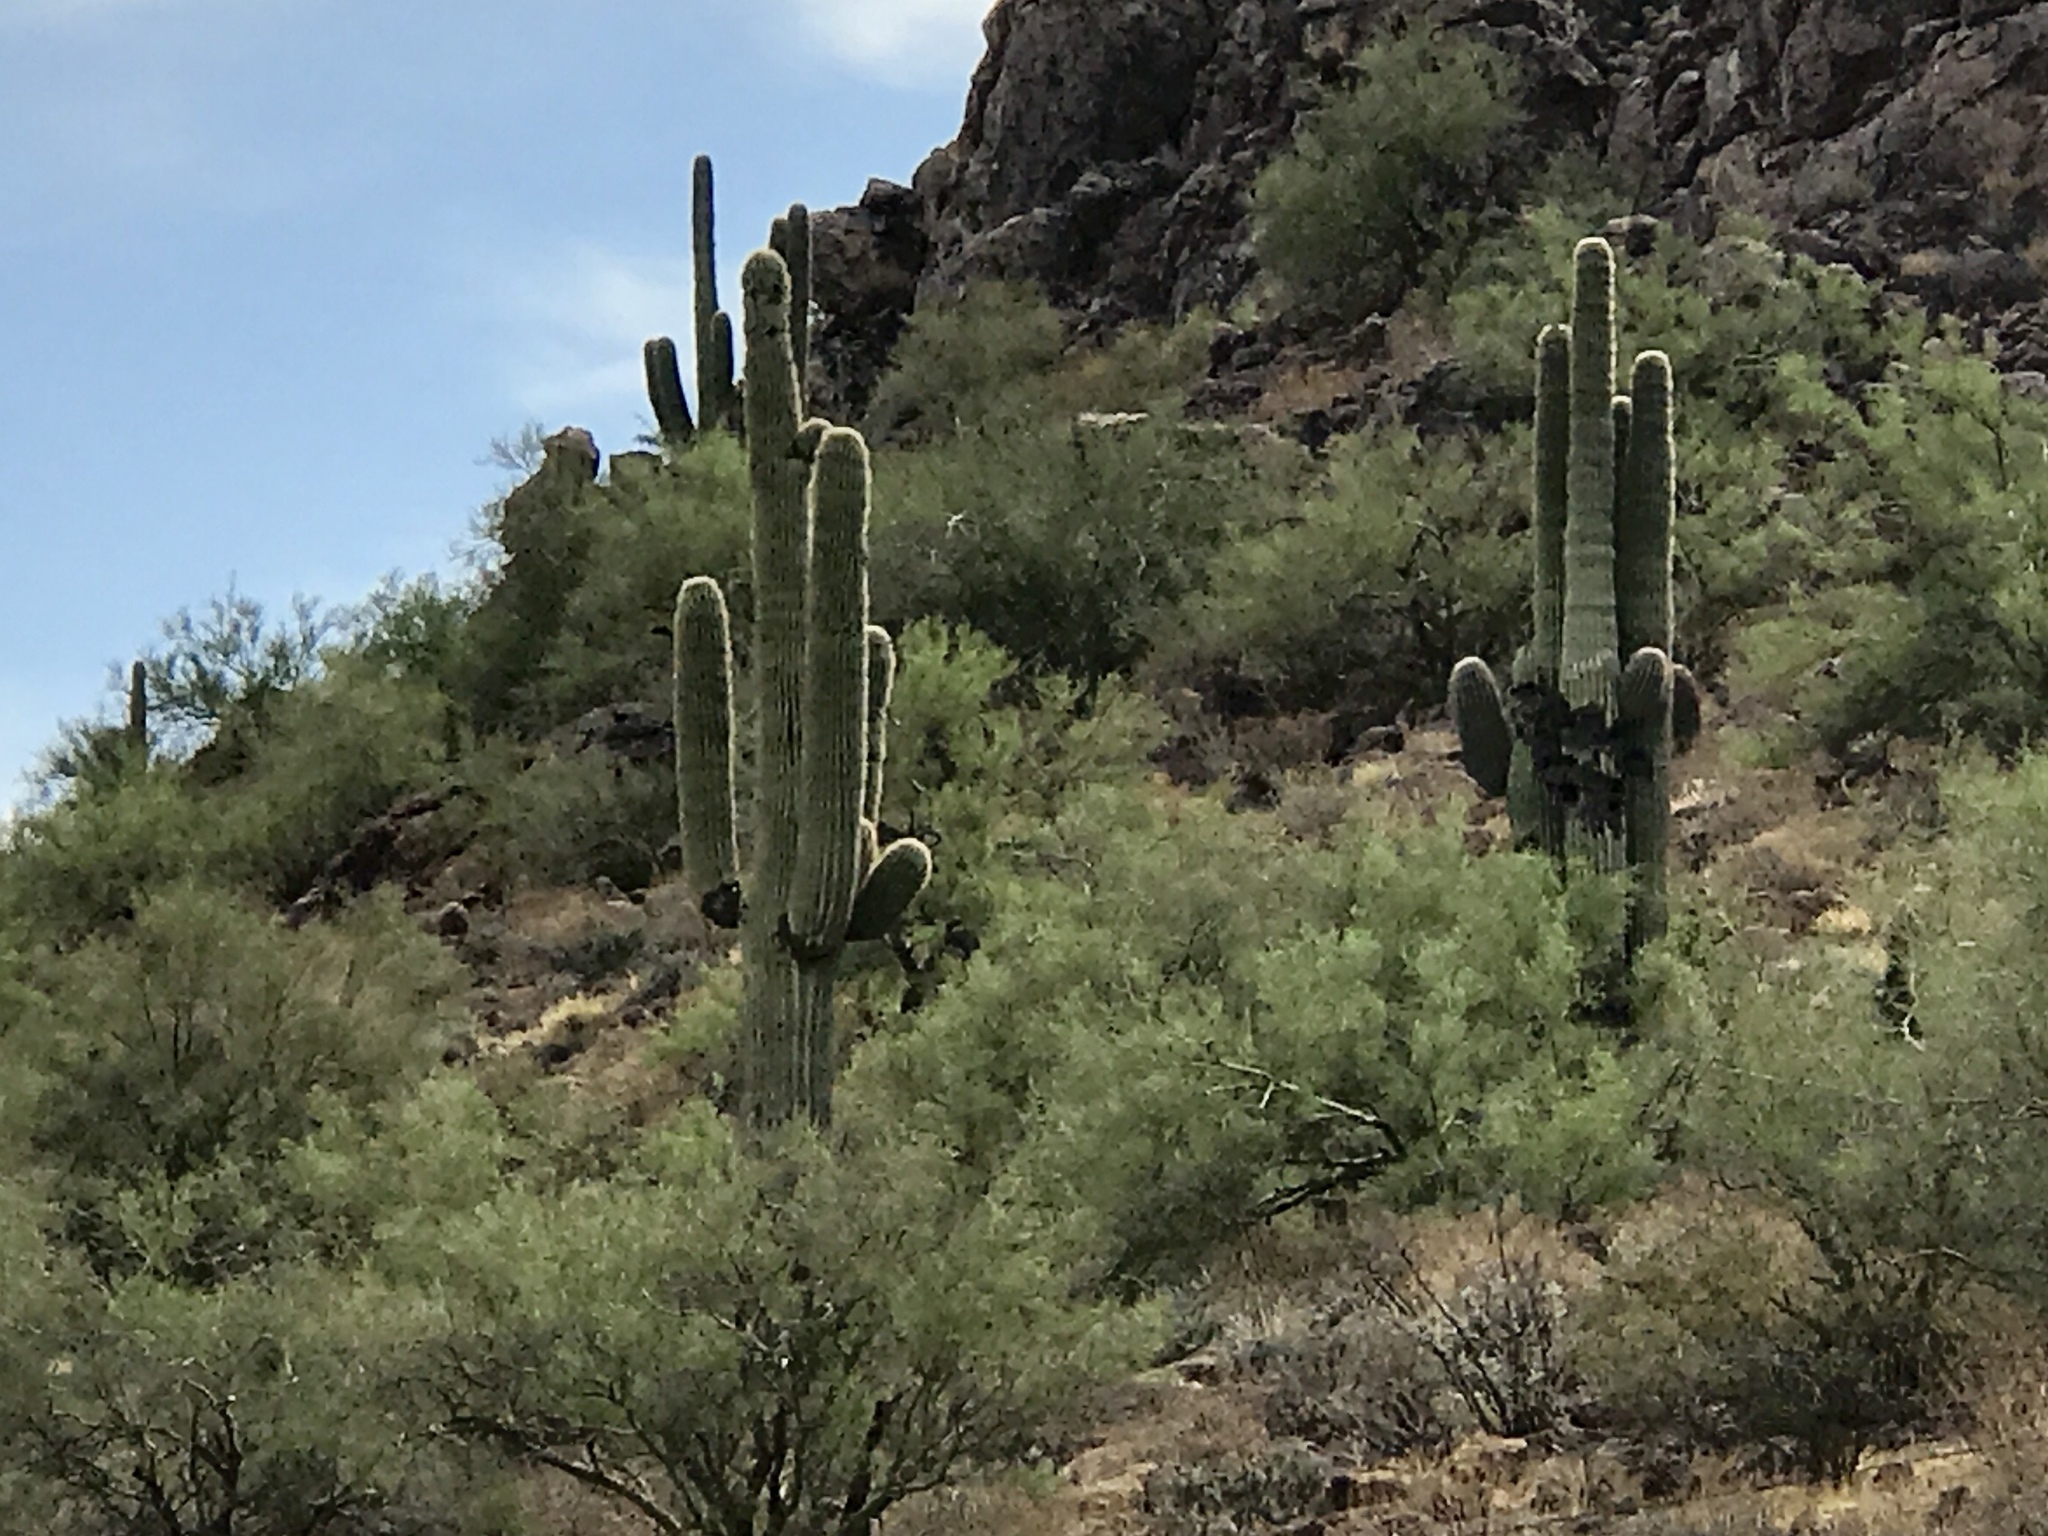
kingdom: Plantae
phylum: Tracheophyta
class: Magnoliopsida
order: Caryophyllales
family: Cactaceae
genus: Carnegiea
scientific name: Carnegiea gigantea
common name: Saguaro
